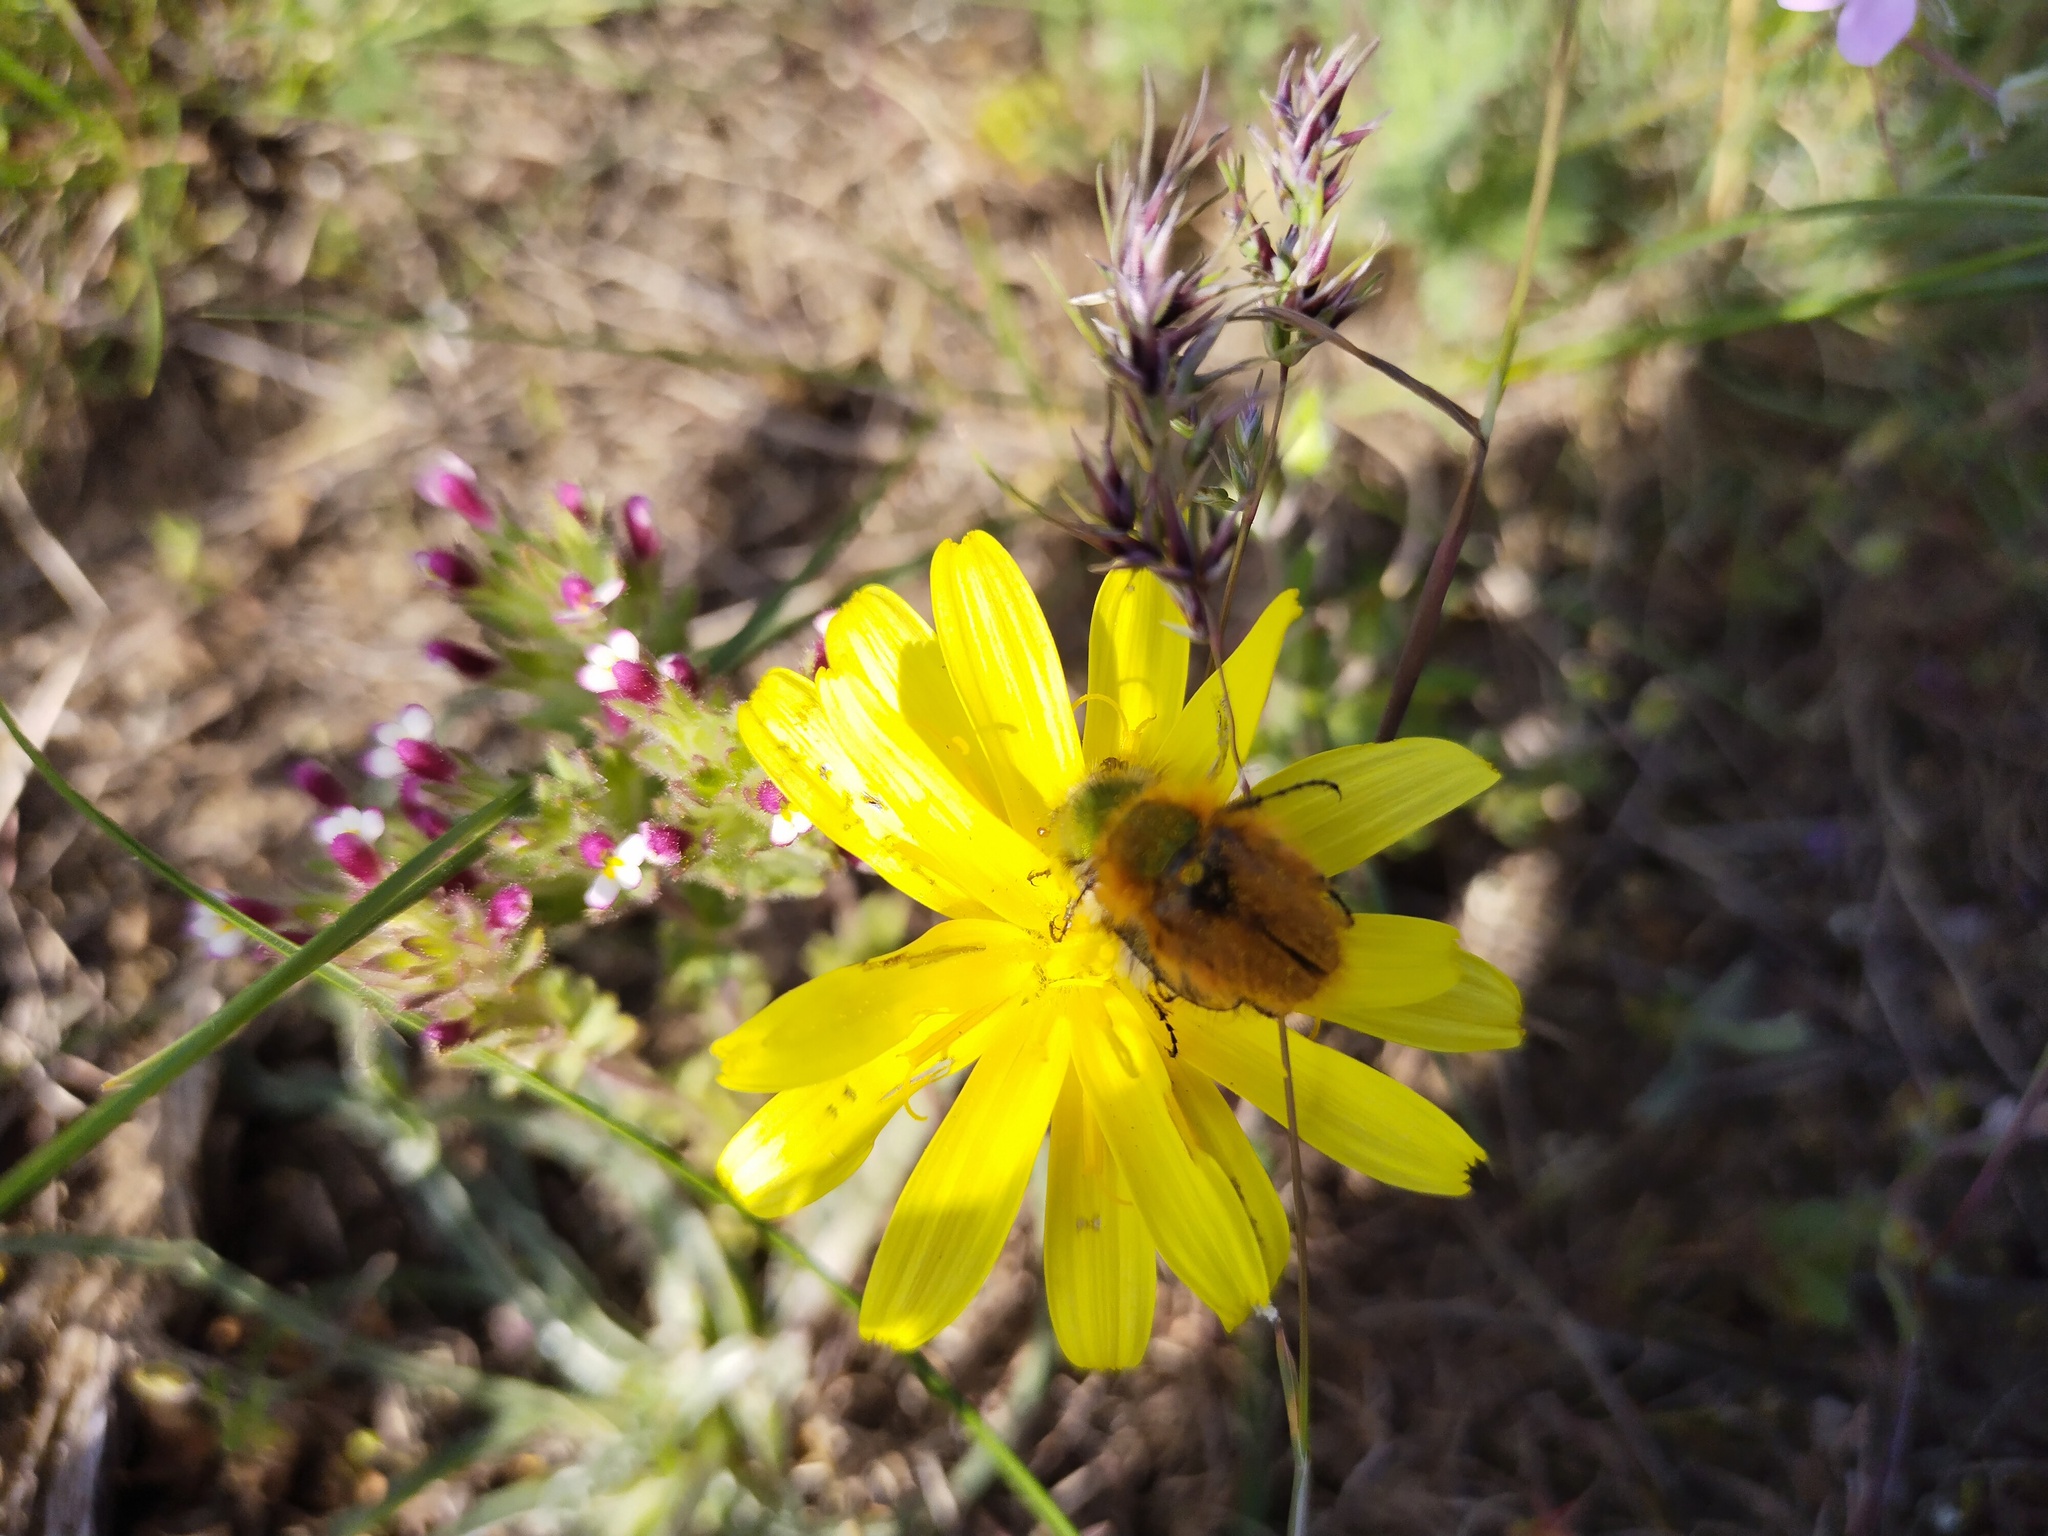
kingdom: Animalia
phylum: Arthropoda
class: Insecta
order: Coleoptera
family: Glaphyridae
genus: Pygopleurus
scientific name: Pygopleurus vulpes
